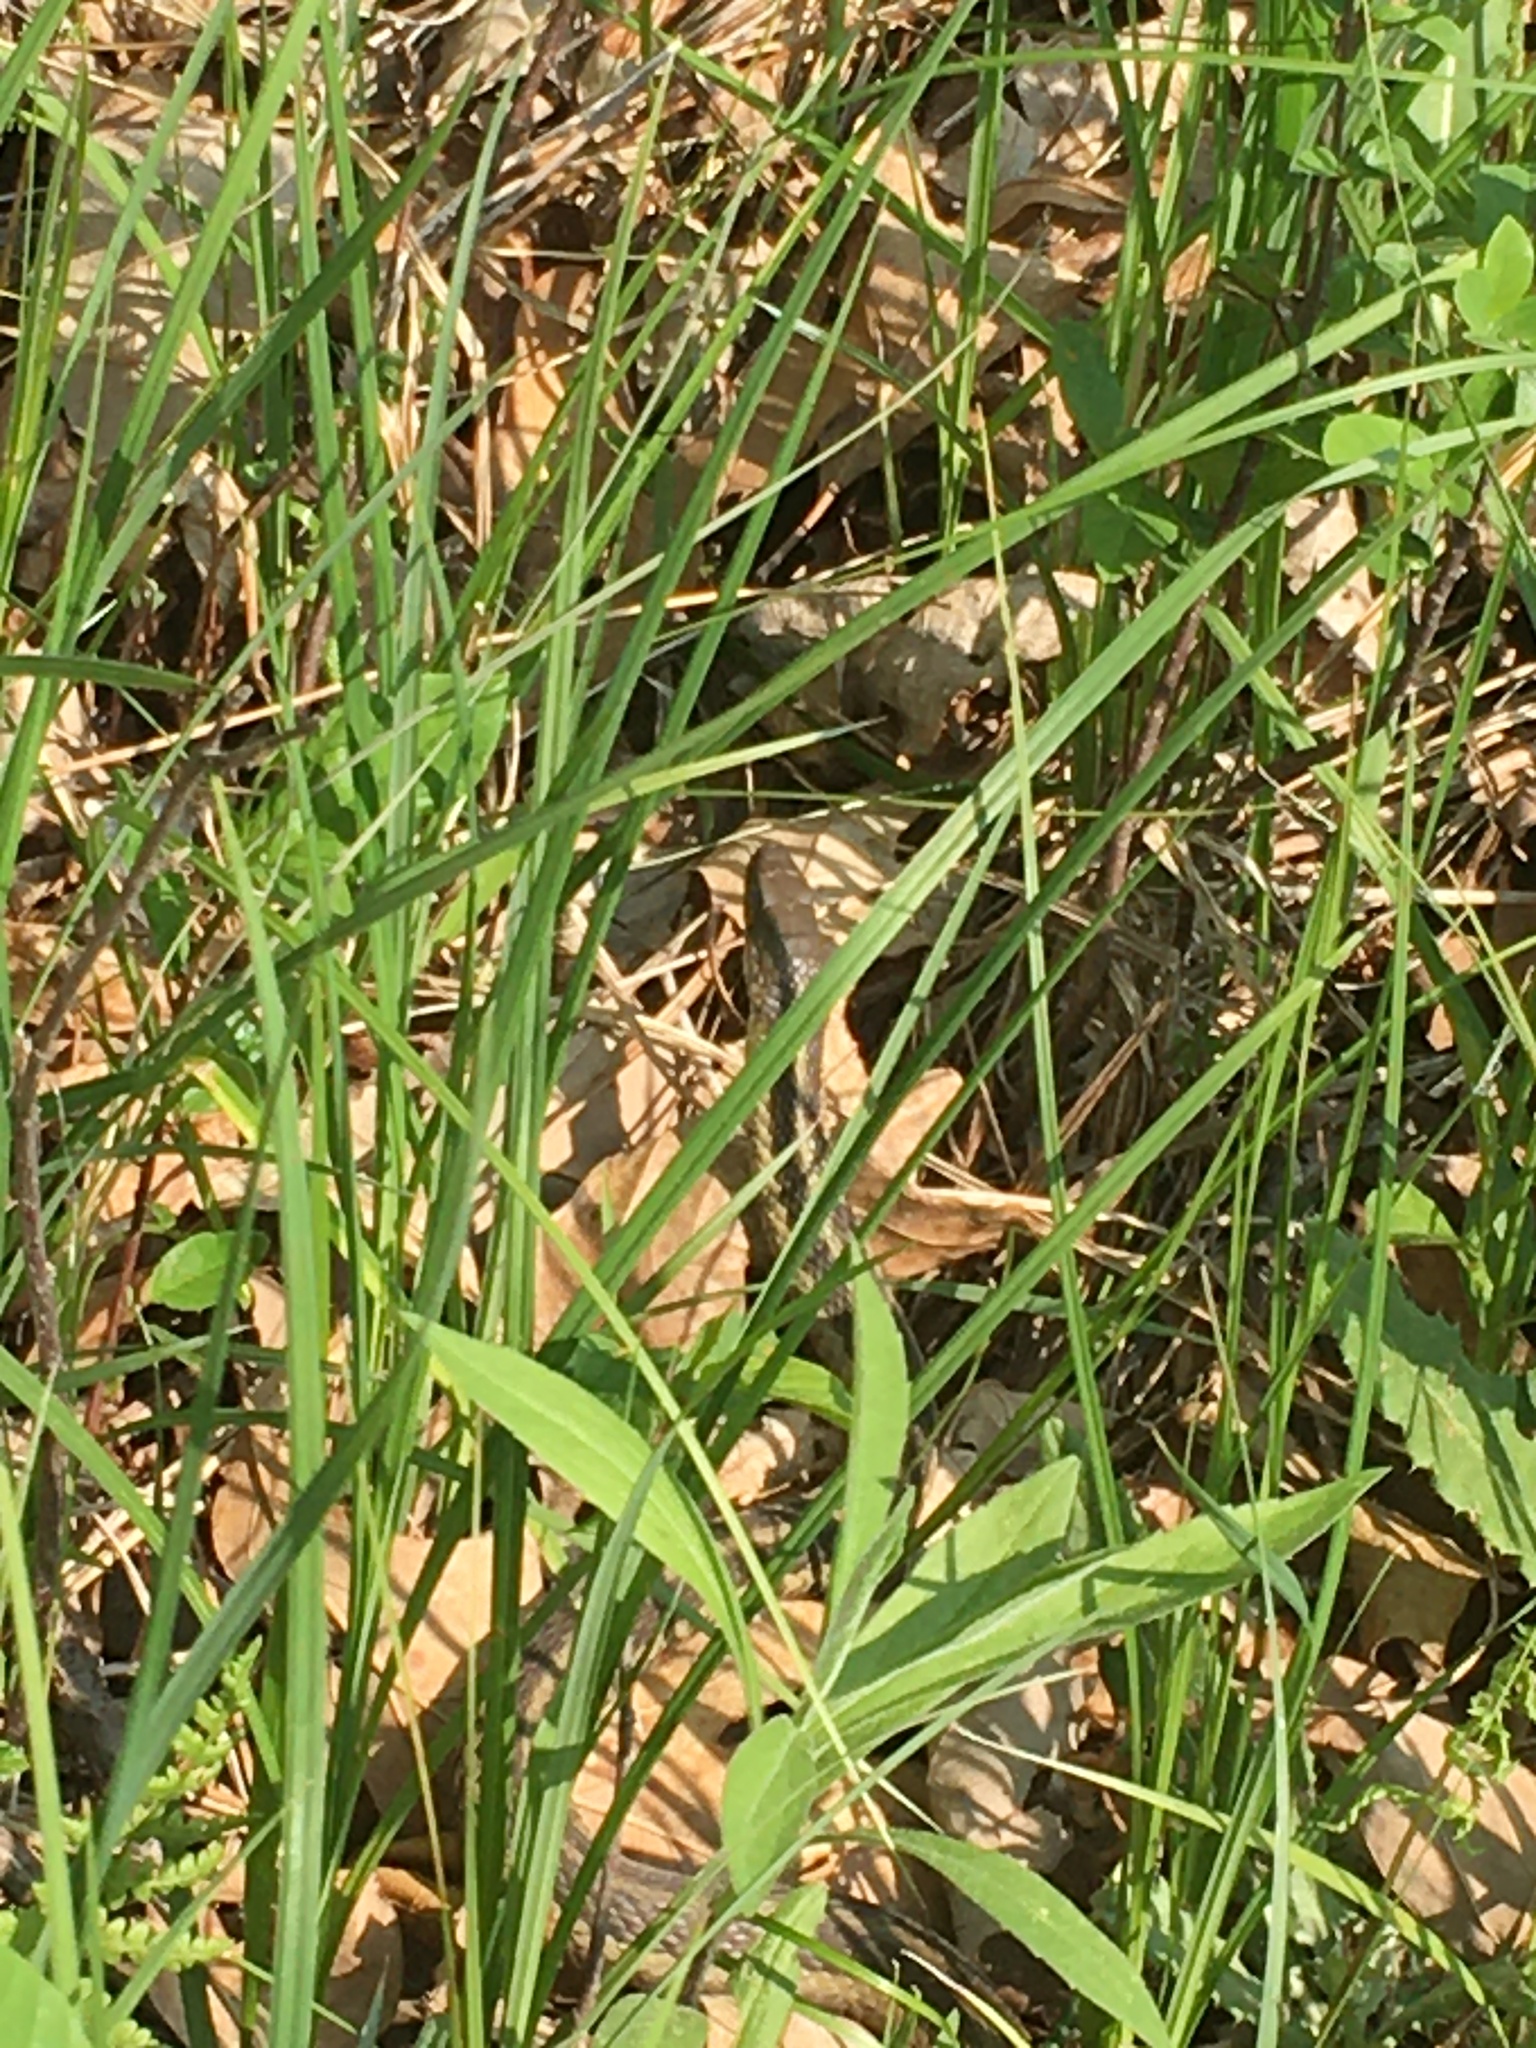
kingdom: Animalia
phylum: Chordata
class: Squamata
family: Colubridae
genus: Thamnophis
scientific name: Thamnophis sirtalis
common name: Common garter snake
